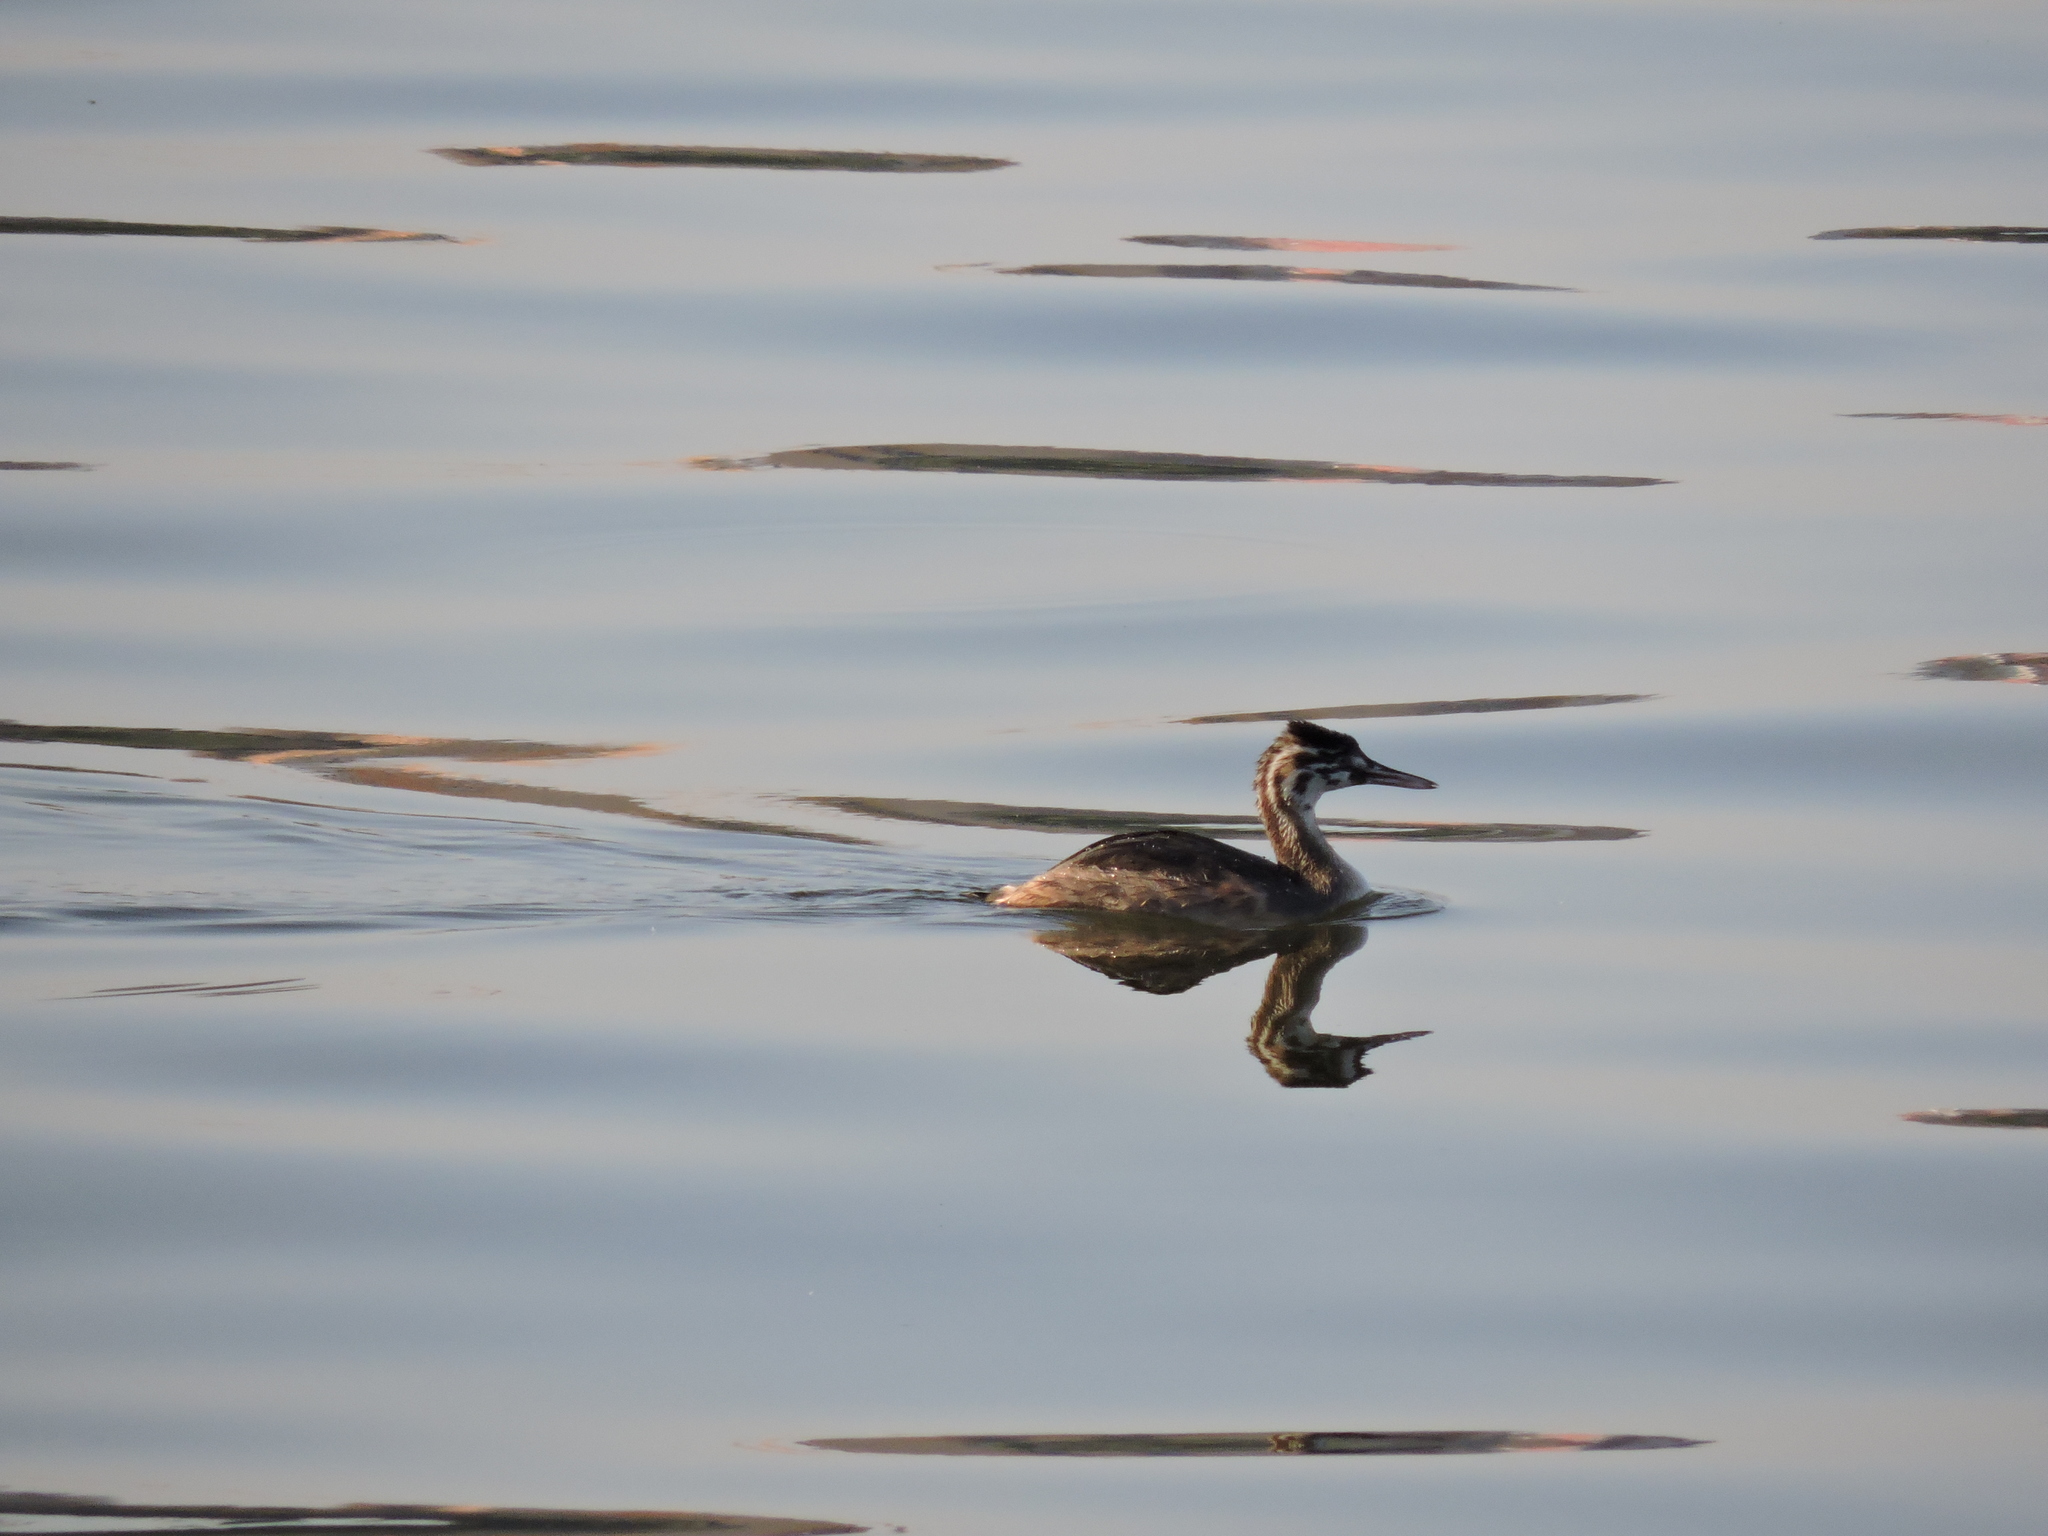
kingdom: Animalia
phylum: Chordata
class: Aves
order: Podicipediformes
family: Podicipedidae
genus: Podiceps
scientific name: Podiceps cristatus
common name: Great crested grebe
